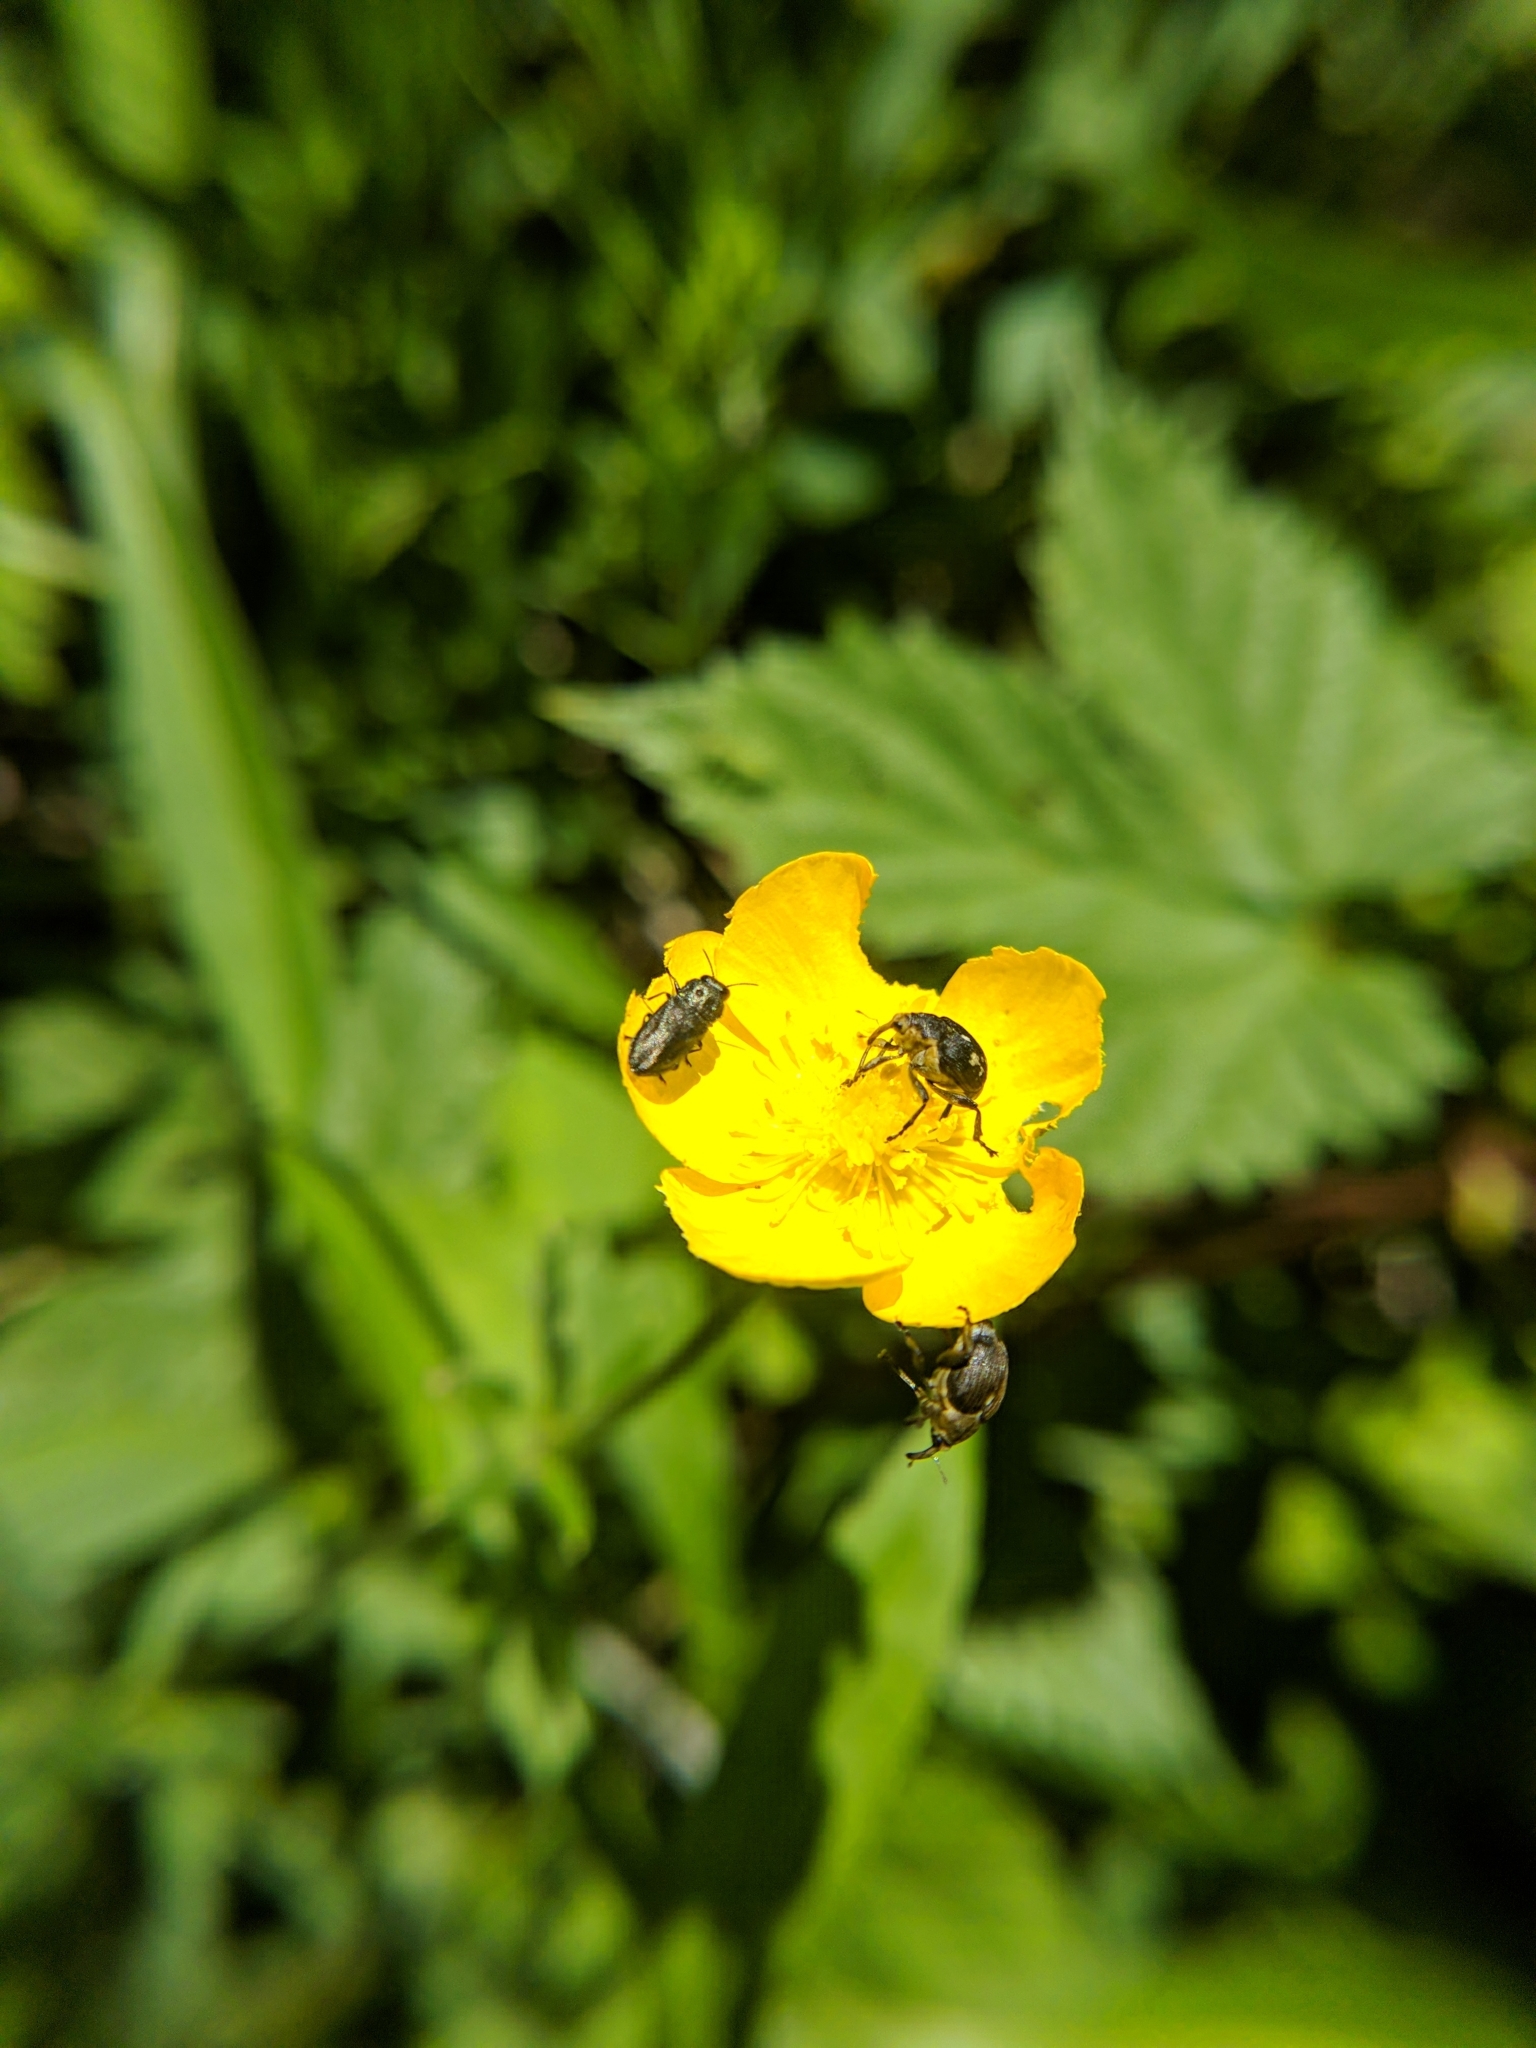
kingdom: Animalia
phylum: Arthropoda
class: Insecta
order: Coleoptera
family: Curculionidae
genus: Mononychus
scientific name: Mononychus punctumalbum
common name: Iris weevil
